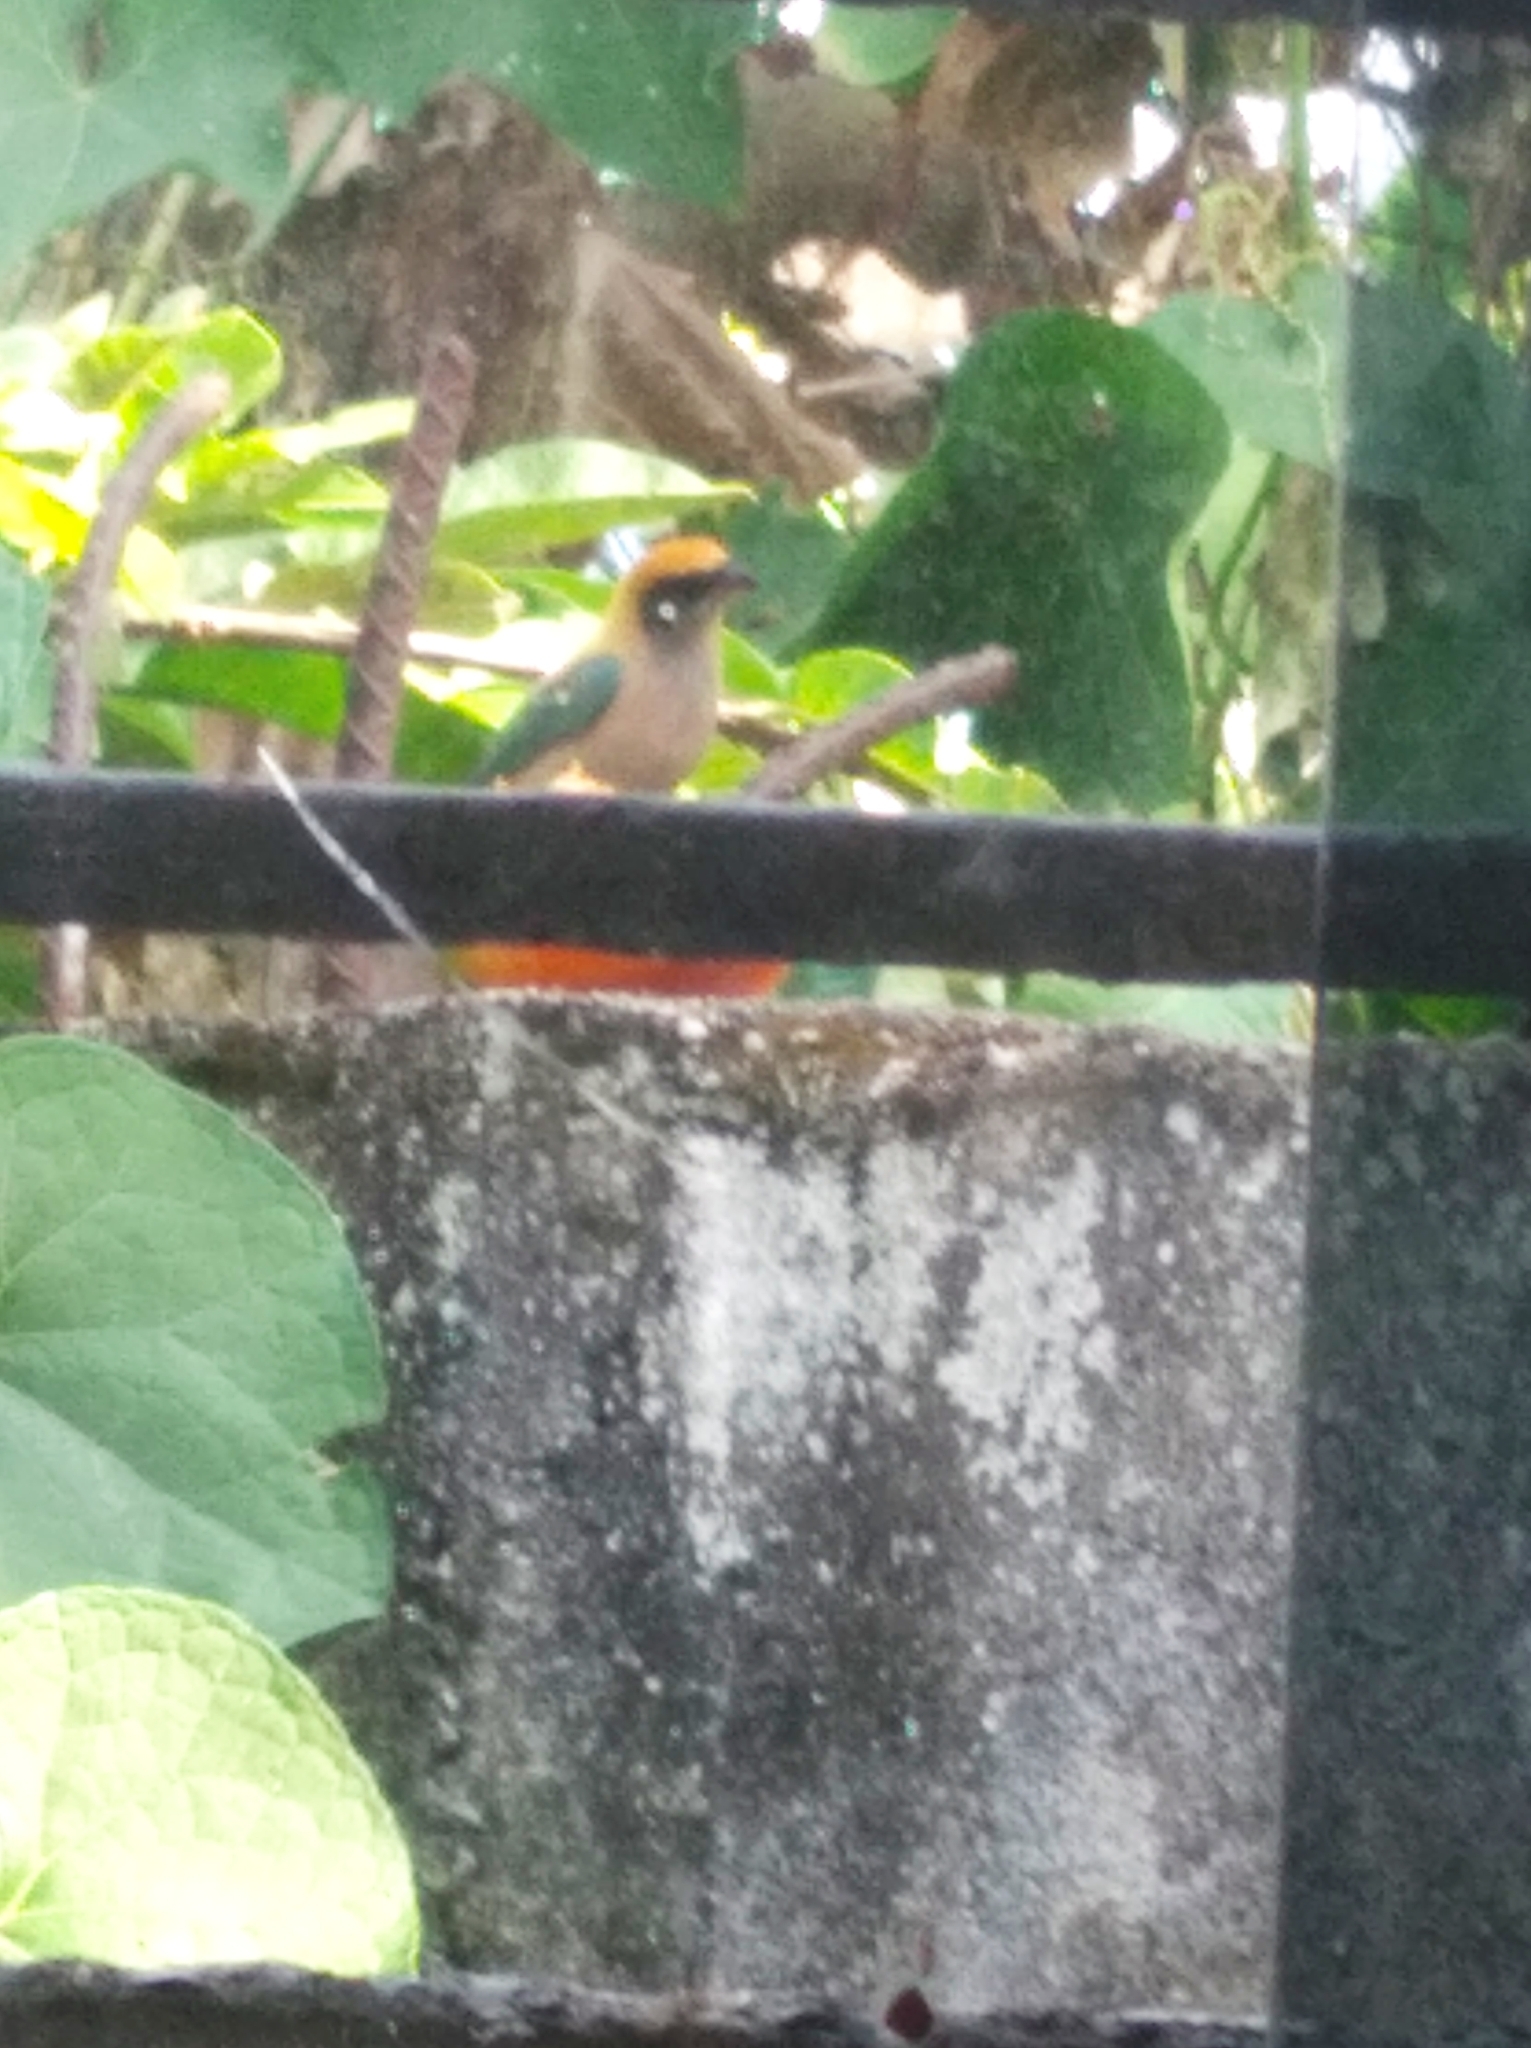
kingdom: Animalia
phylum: Chordata
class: Aves
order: Passeriformes
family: Thraupidae
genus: Stilpnia
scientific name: Stilpnia cayana
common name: Burnished-buff tanager
